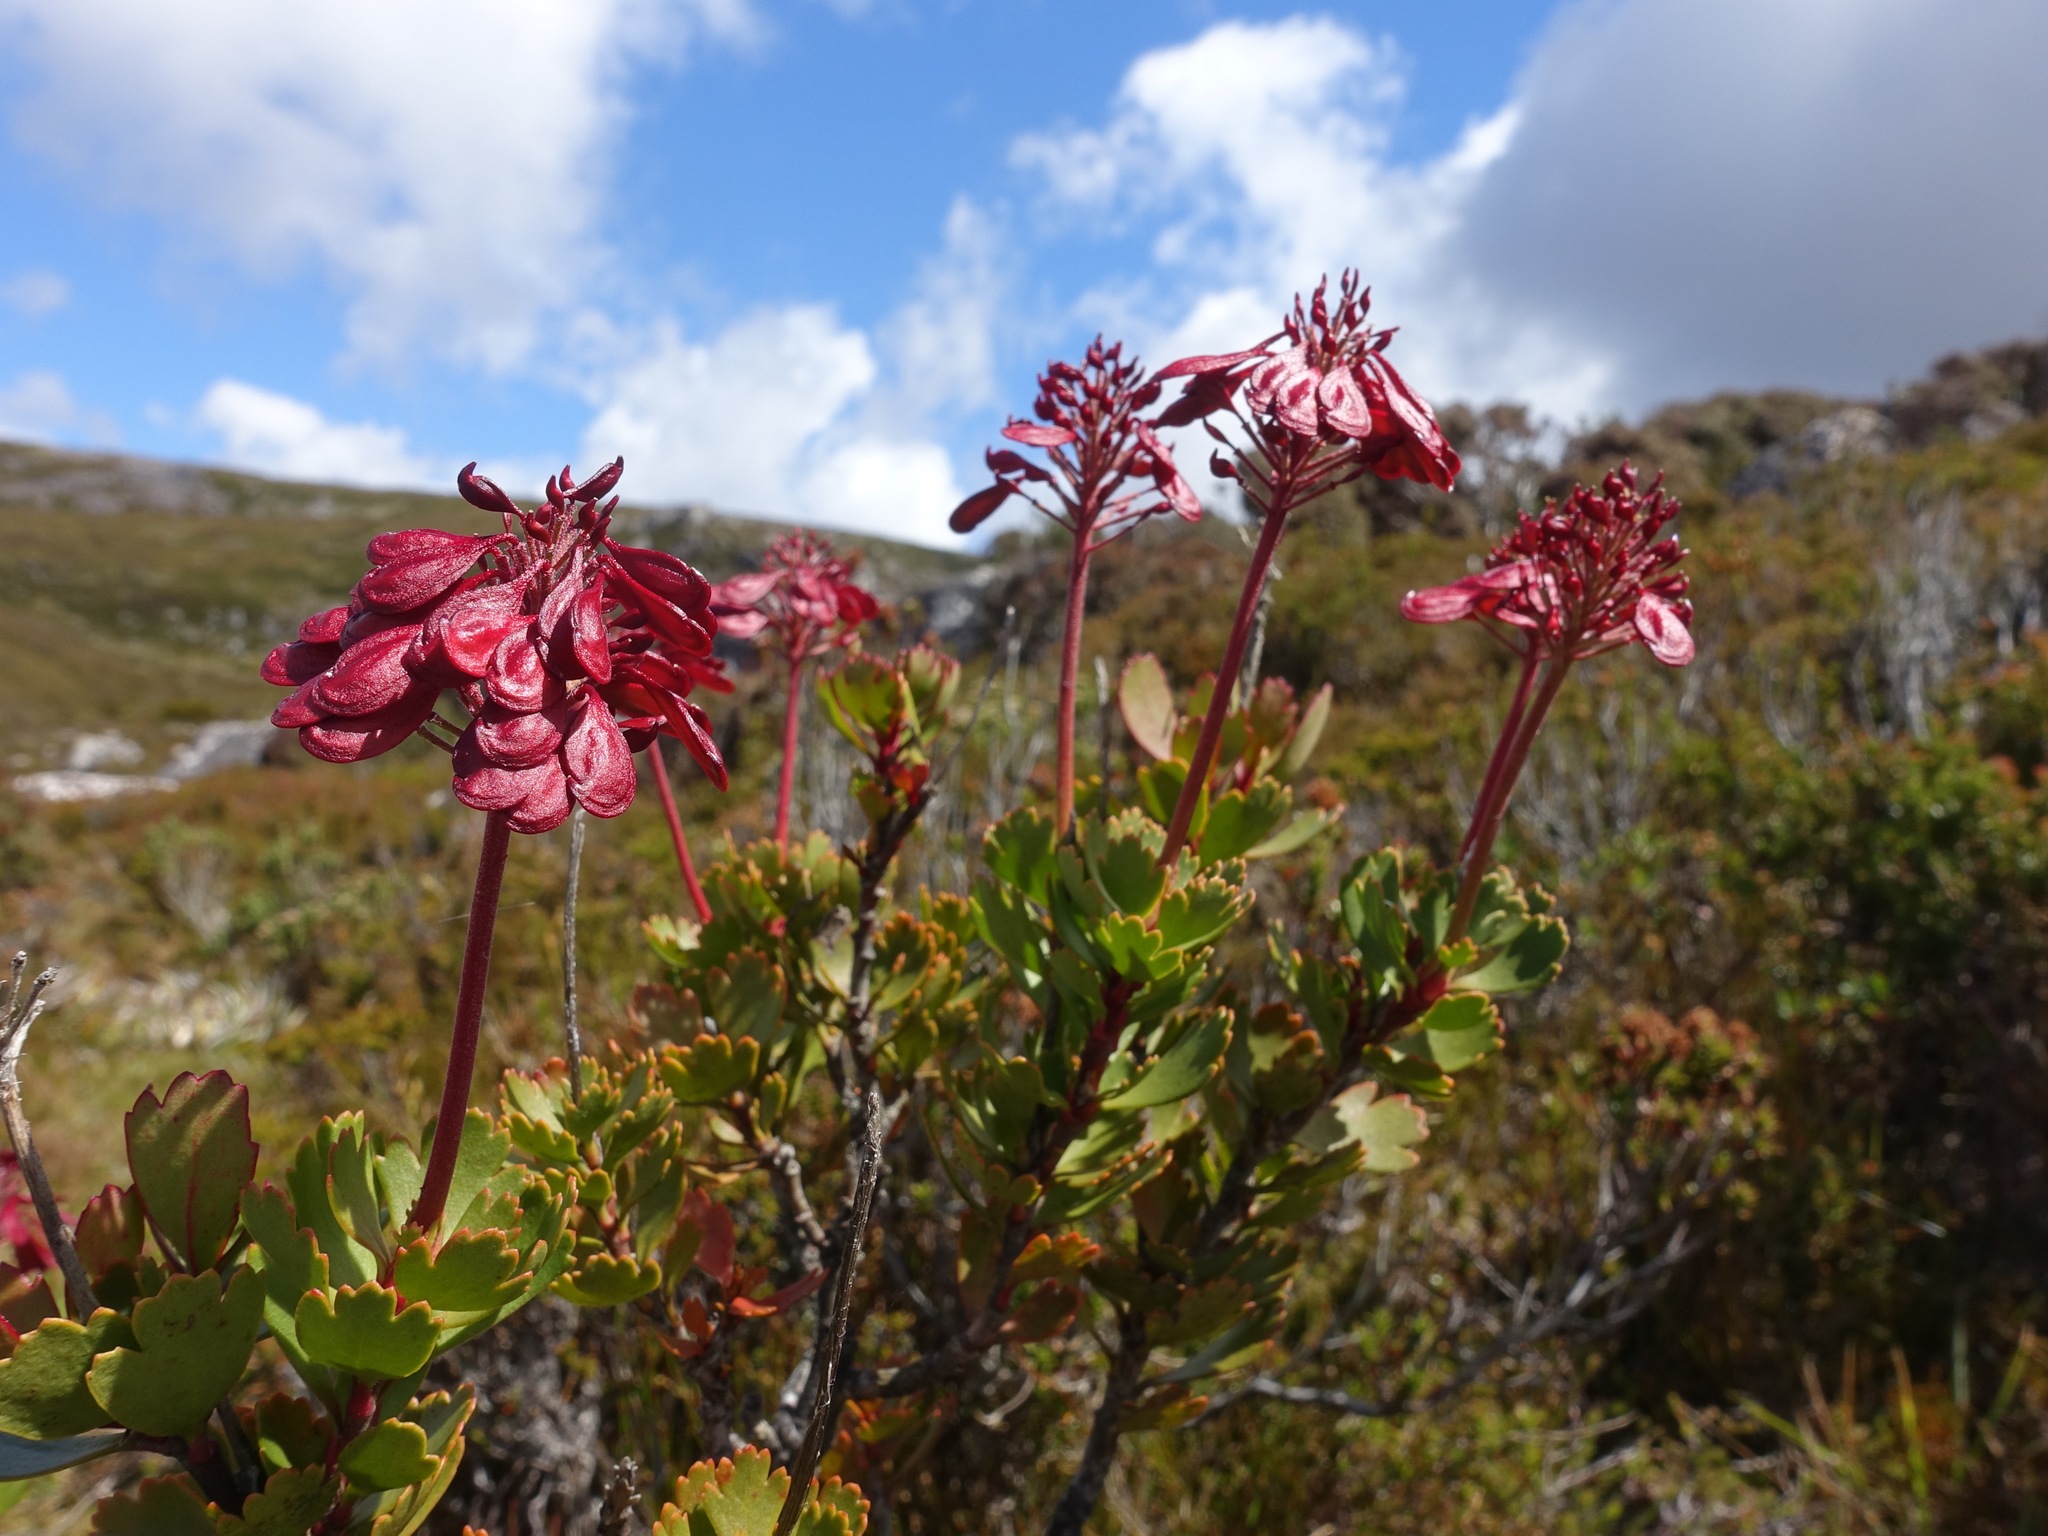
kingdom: Plantae
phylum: Tracheophyta
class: Magnoliopsida
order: Proteales
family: Proteaceae
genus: Bellendena
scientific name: Bellendena montana
